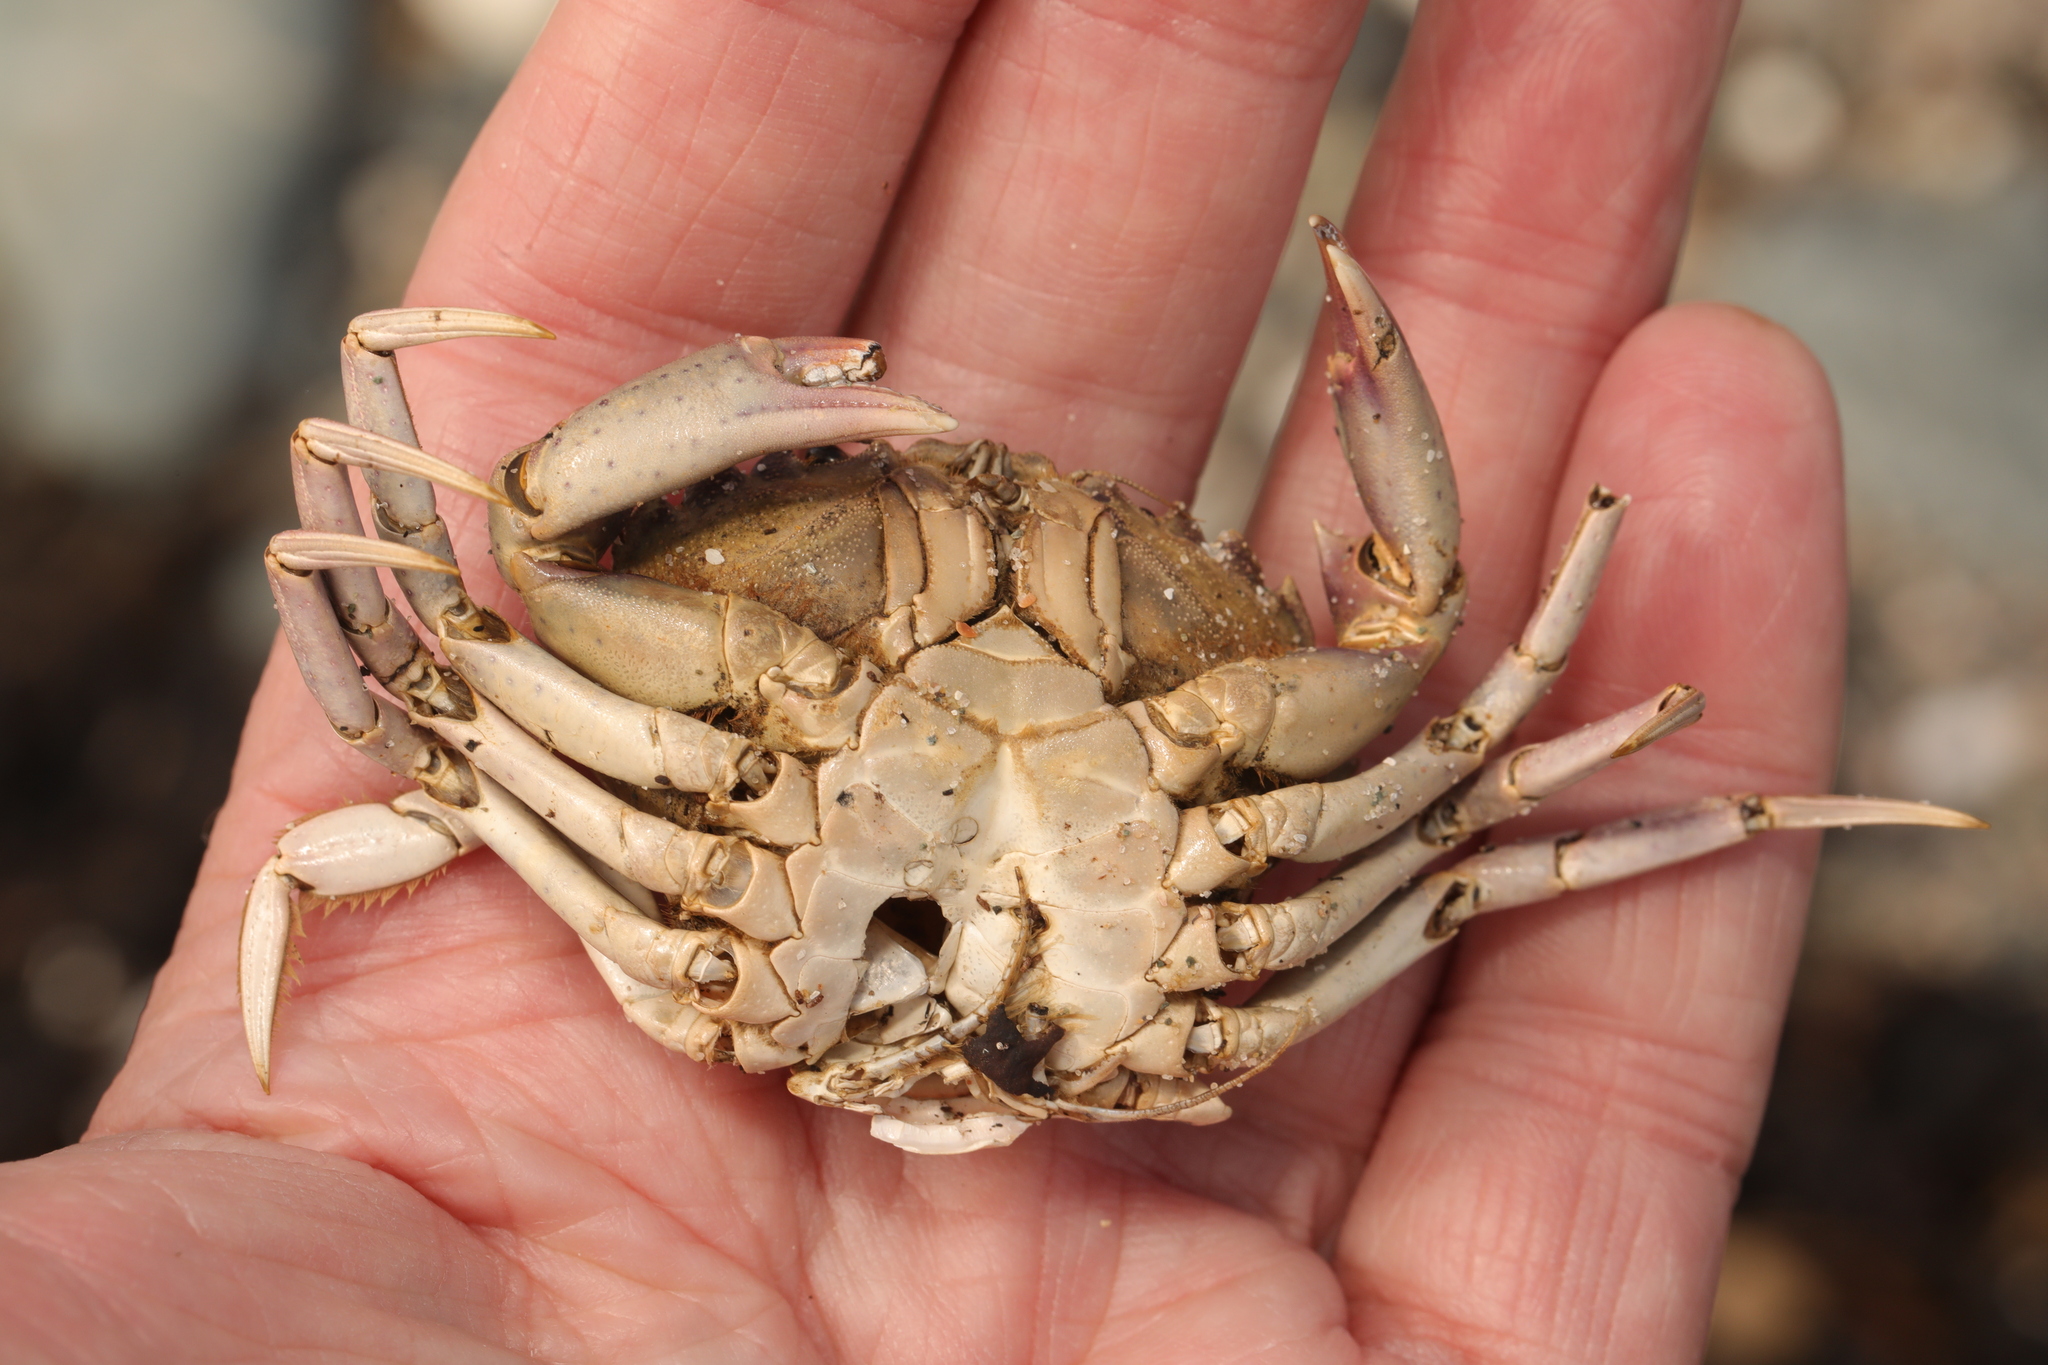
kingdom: Animalia
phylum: Arthropoda
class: Malacostraca
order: Decapoda
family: Carcinidae
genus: Carcinus
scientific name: Carcinus maenas
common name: European green crab
